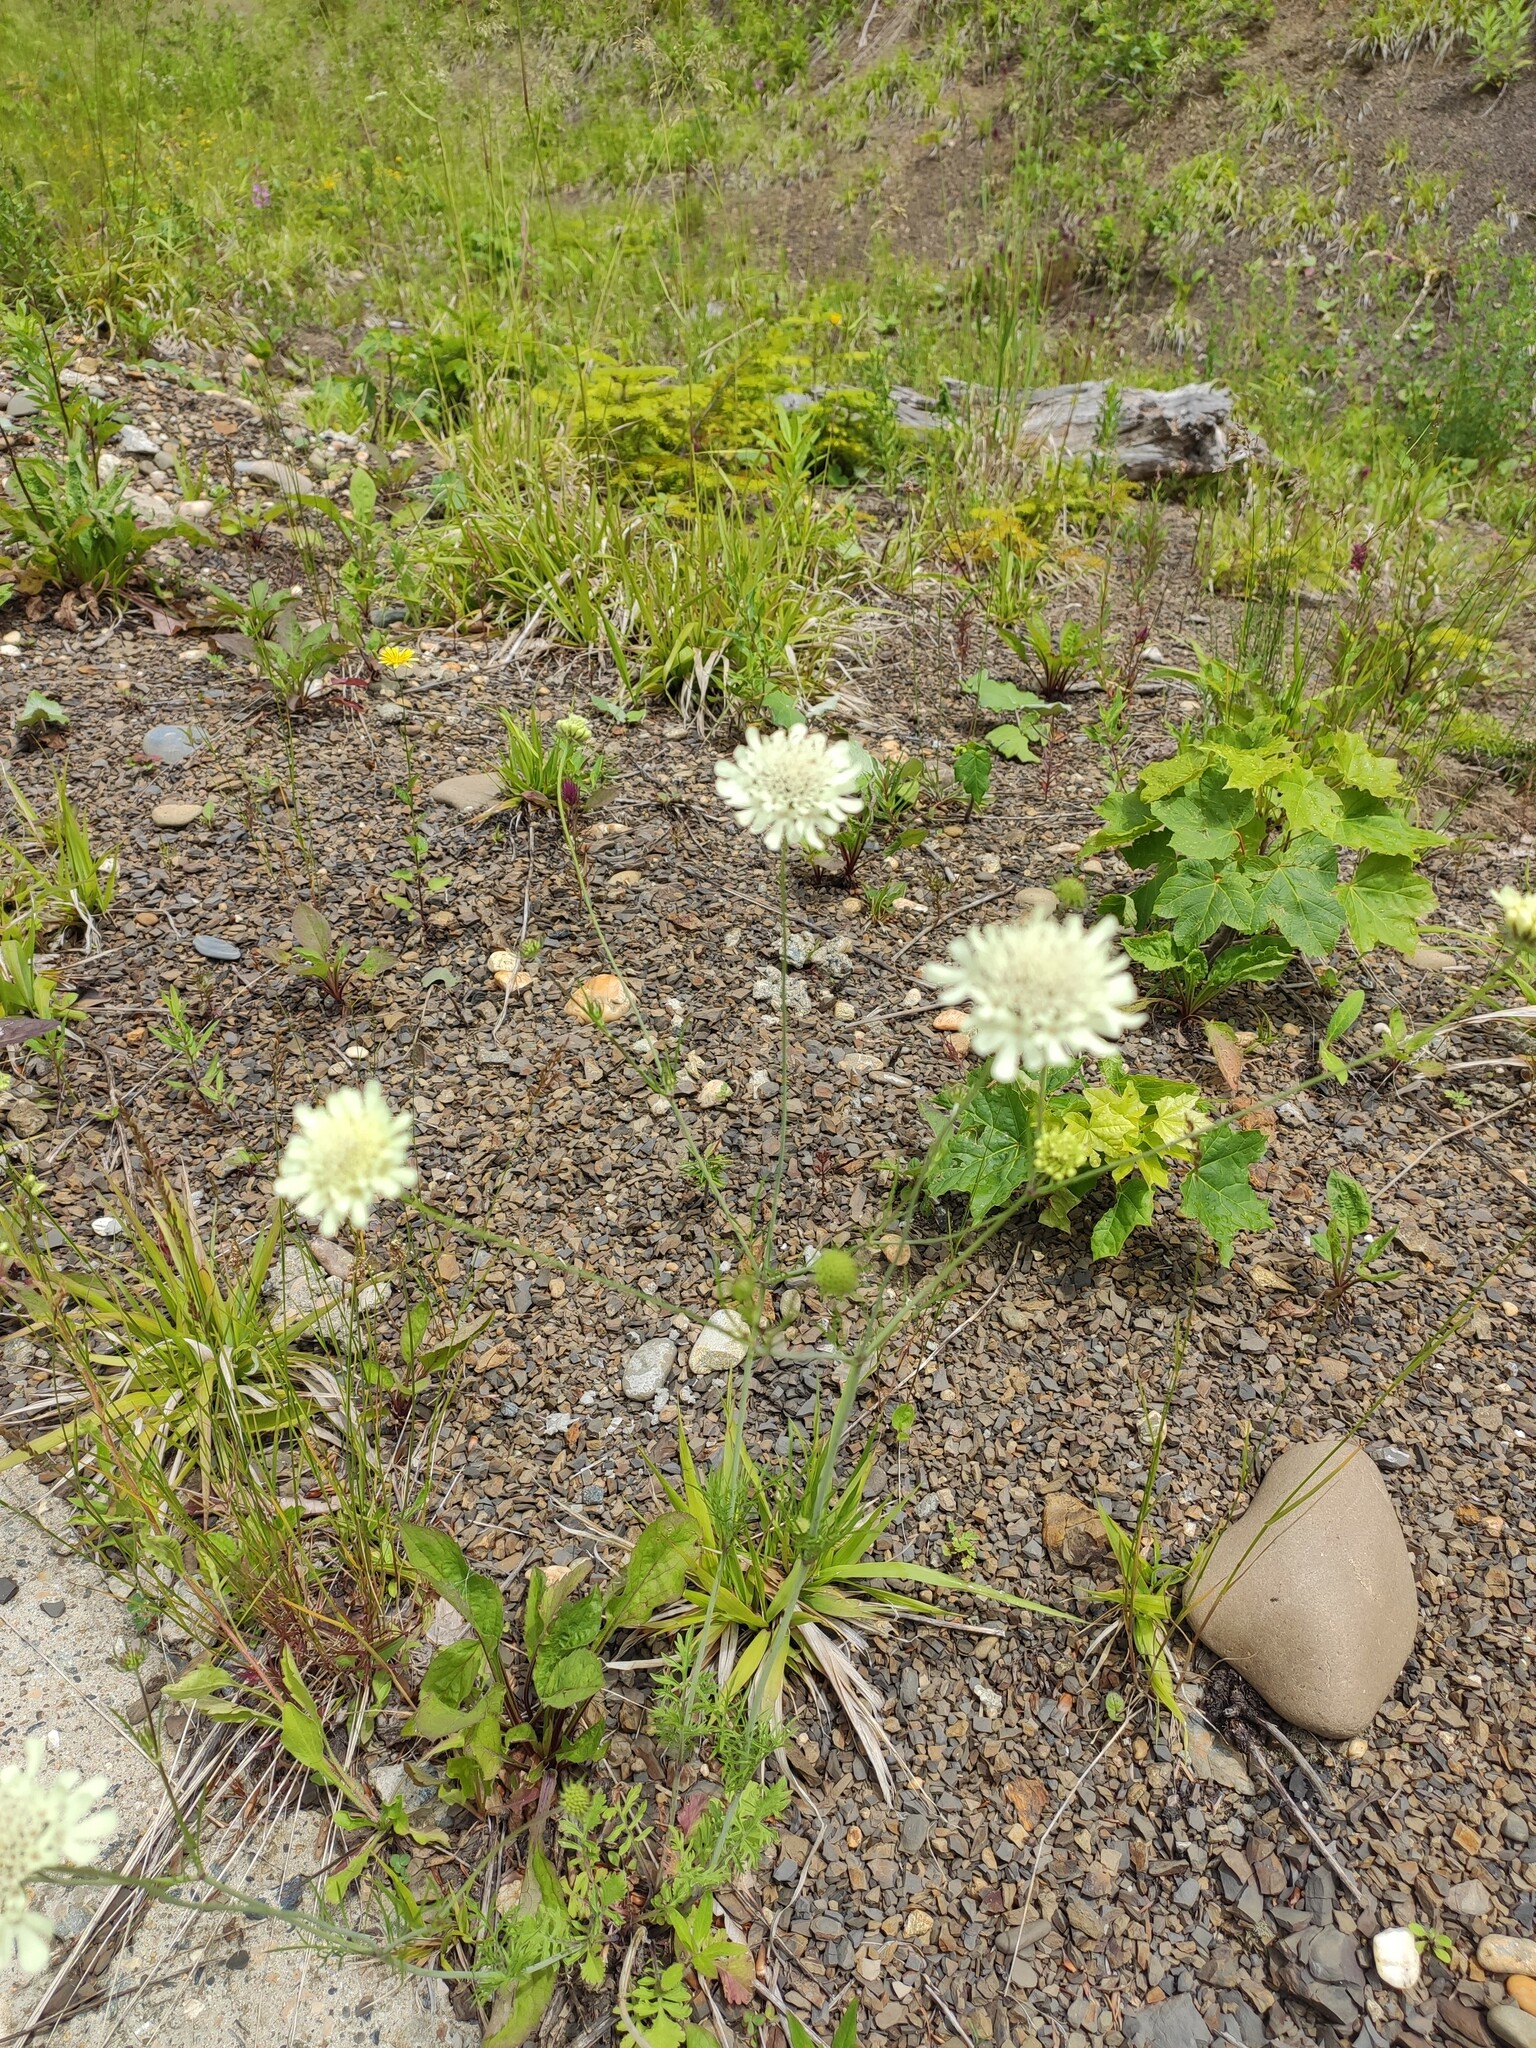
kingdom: Plantae
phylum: Tracheophyta
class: Magnoliopsida
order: Dipsacales
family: Caprifoliaceae
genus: Scabiosa
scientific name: Scabiosa ochroleuca
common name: Cream pincushions
